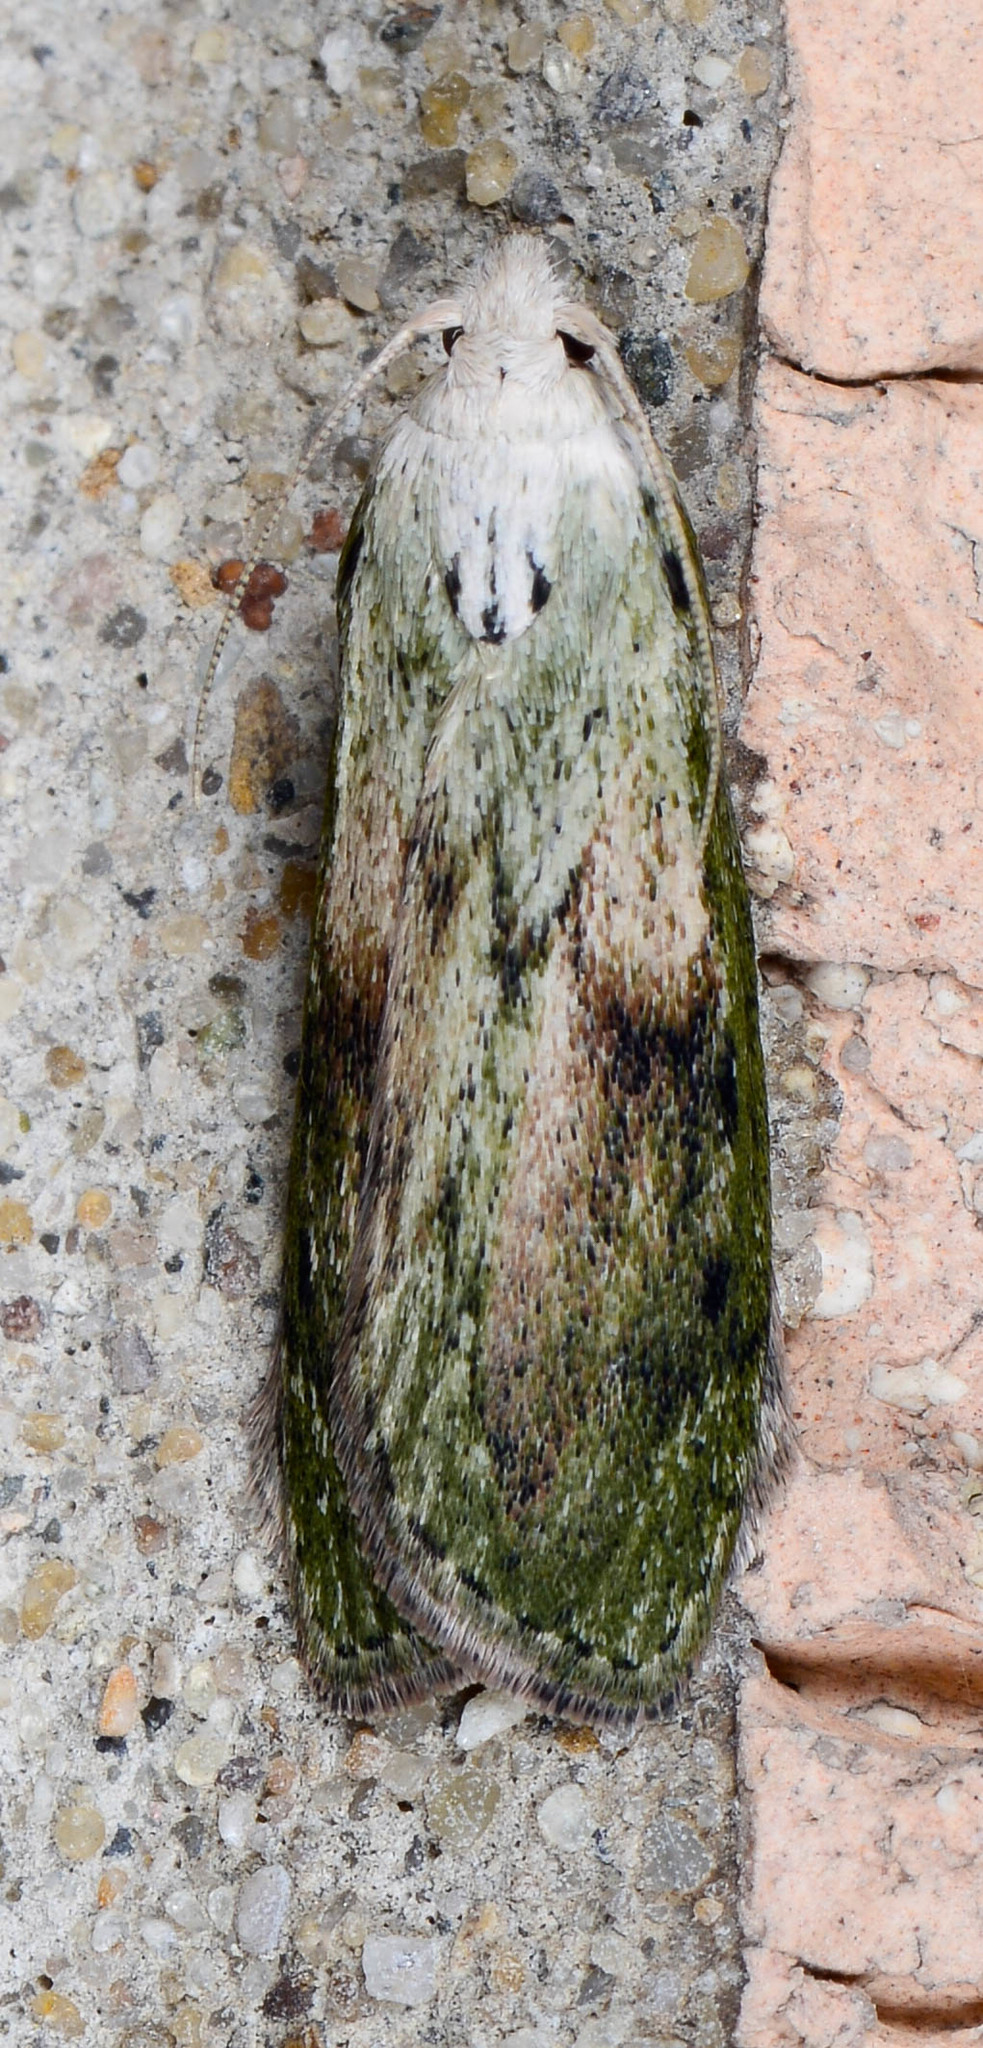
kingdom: Animalia
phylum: Arthropoda
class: Insecta
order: Lepidoptera
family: Pyralidae
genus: Aphomia
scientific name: Aphomia sociella
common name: Bee moth
